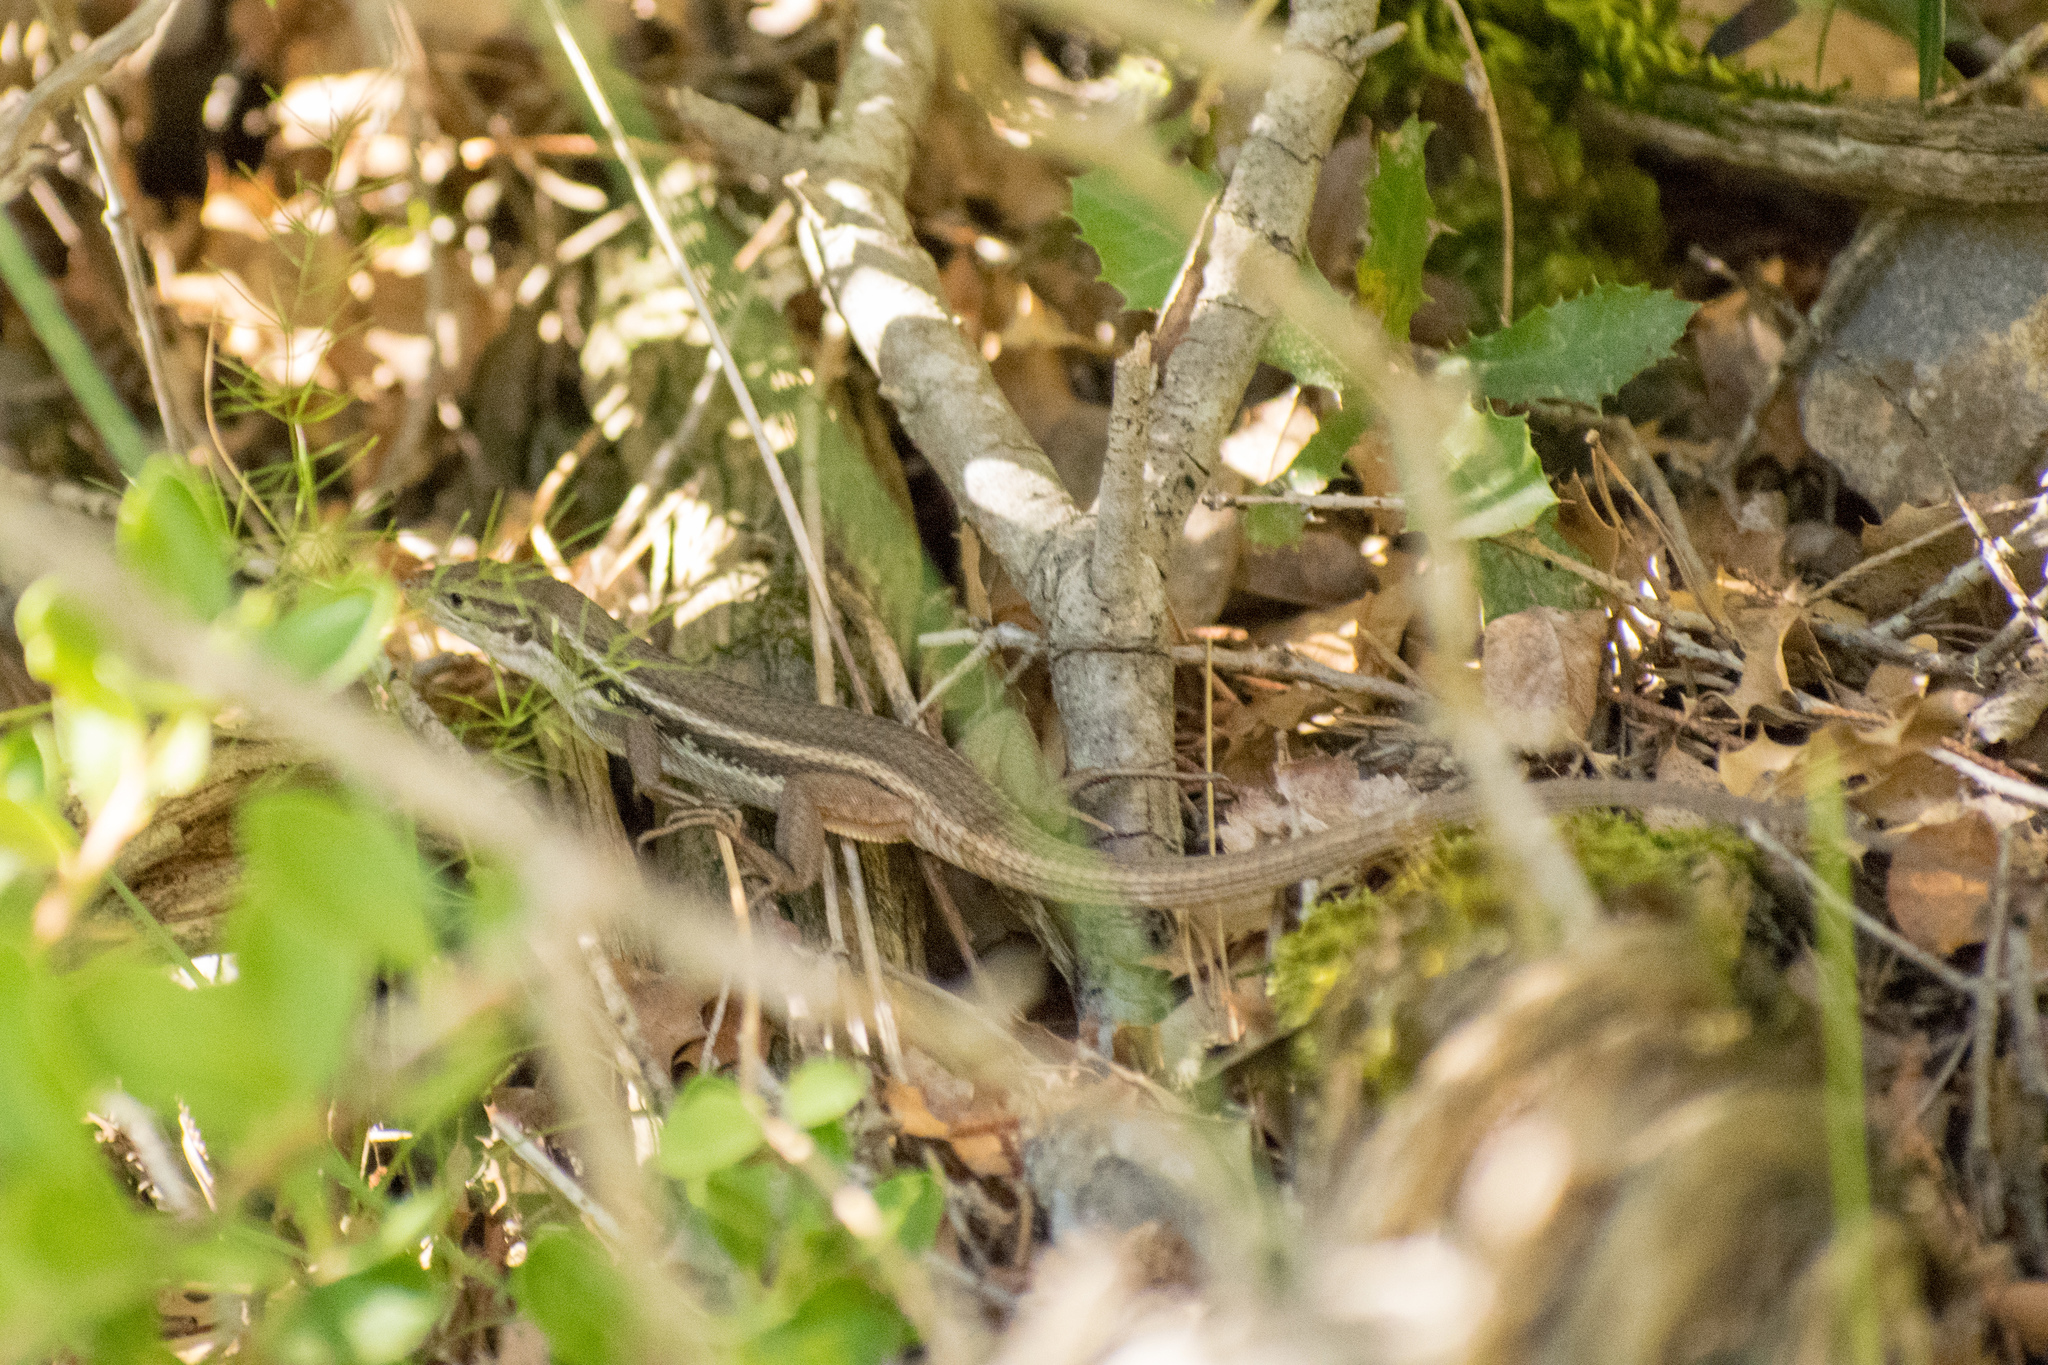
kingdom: Animalia
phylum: Chordata
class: Squamata
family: Lacertidae
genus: Psammodromus
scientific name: Psammodromus algirus
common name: Algerian psammodromus
